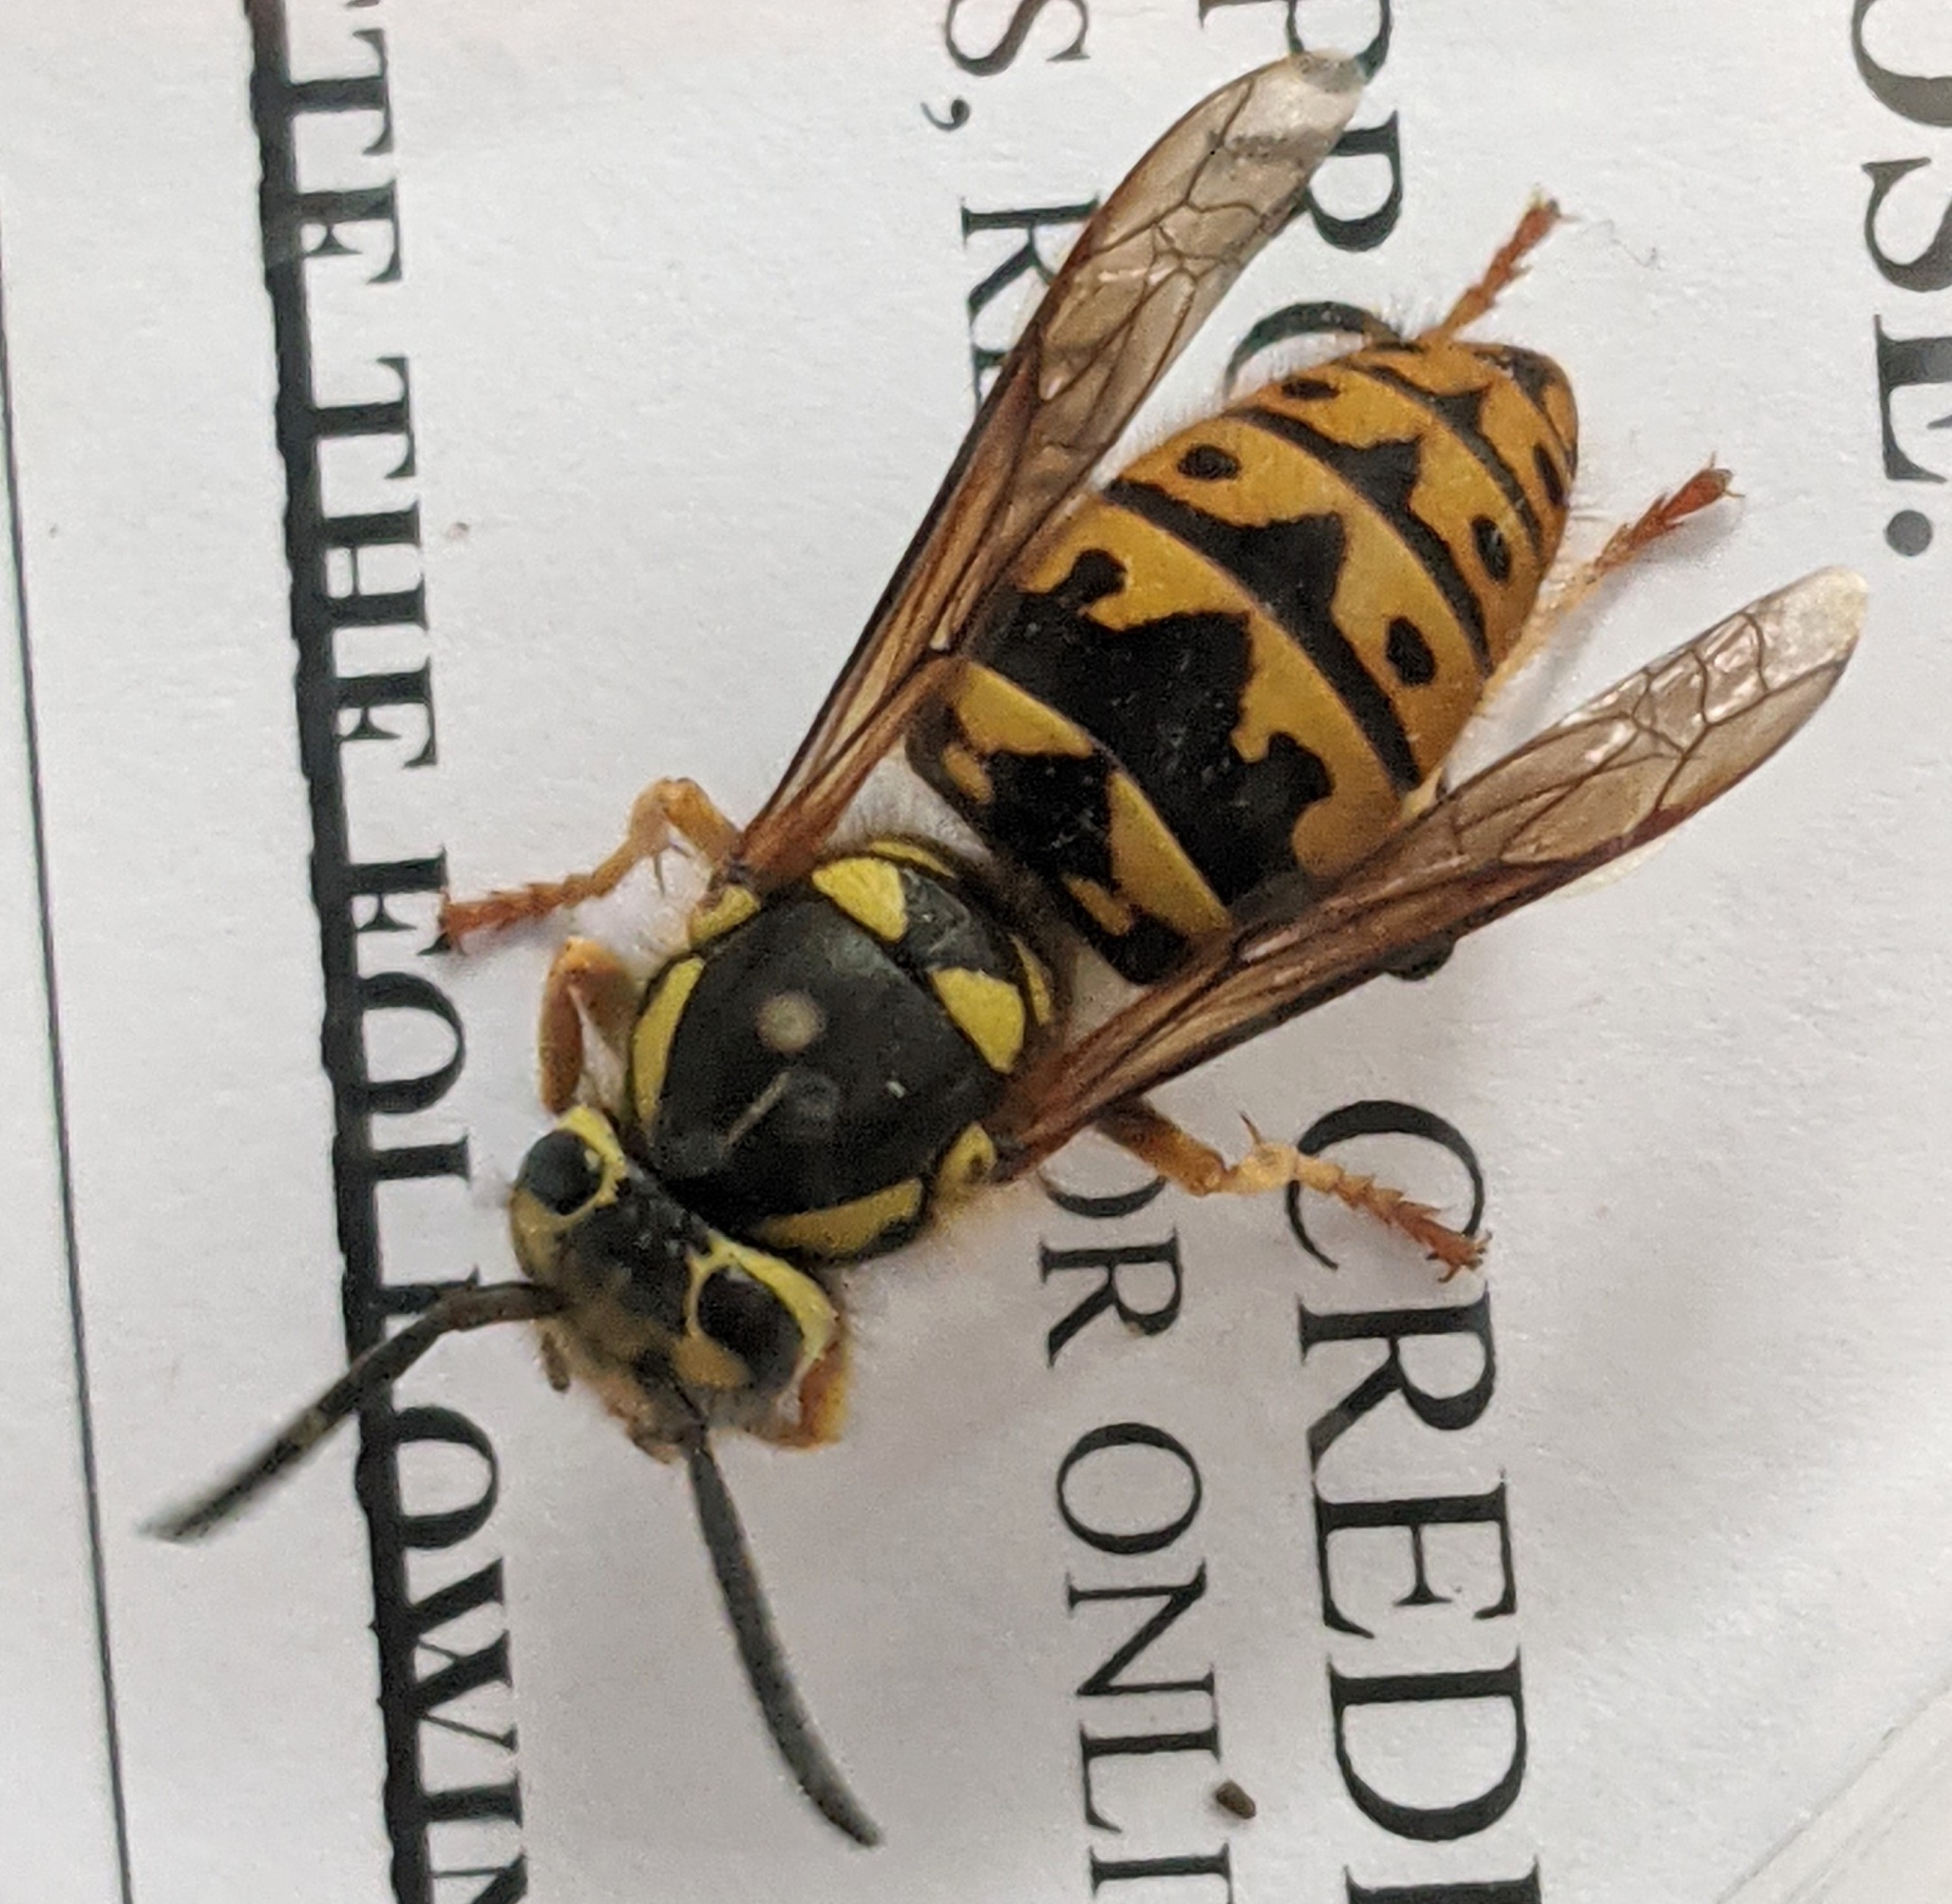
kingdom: Animalia
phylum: Arthropoda
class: Insecta
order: Hymenoptera
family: Vespidae
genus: Vespula
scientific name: Vespula pensylvanica
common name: Western yellowjacket
